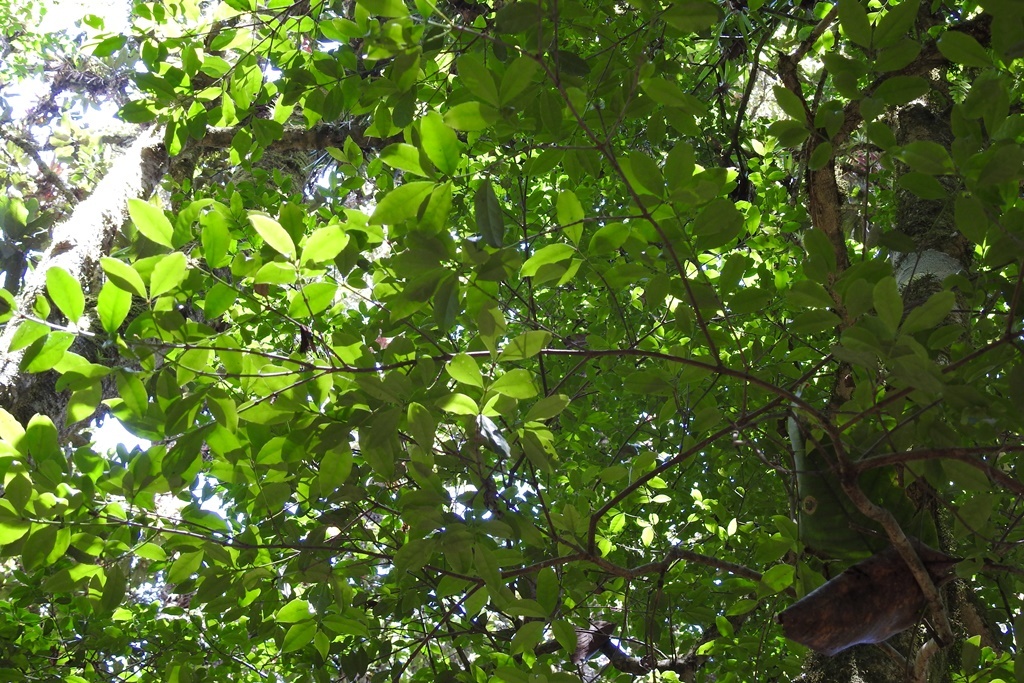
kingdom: Plantae
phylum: Tracheophyta
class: Magnoliopsida
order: Celastrales
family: Celastraceae
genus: Quetzalia
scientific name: Quetzalia contracta
